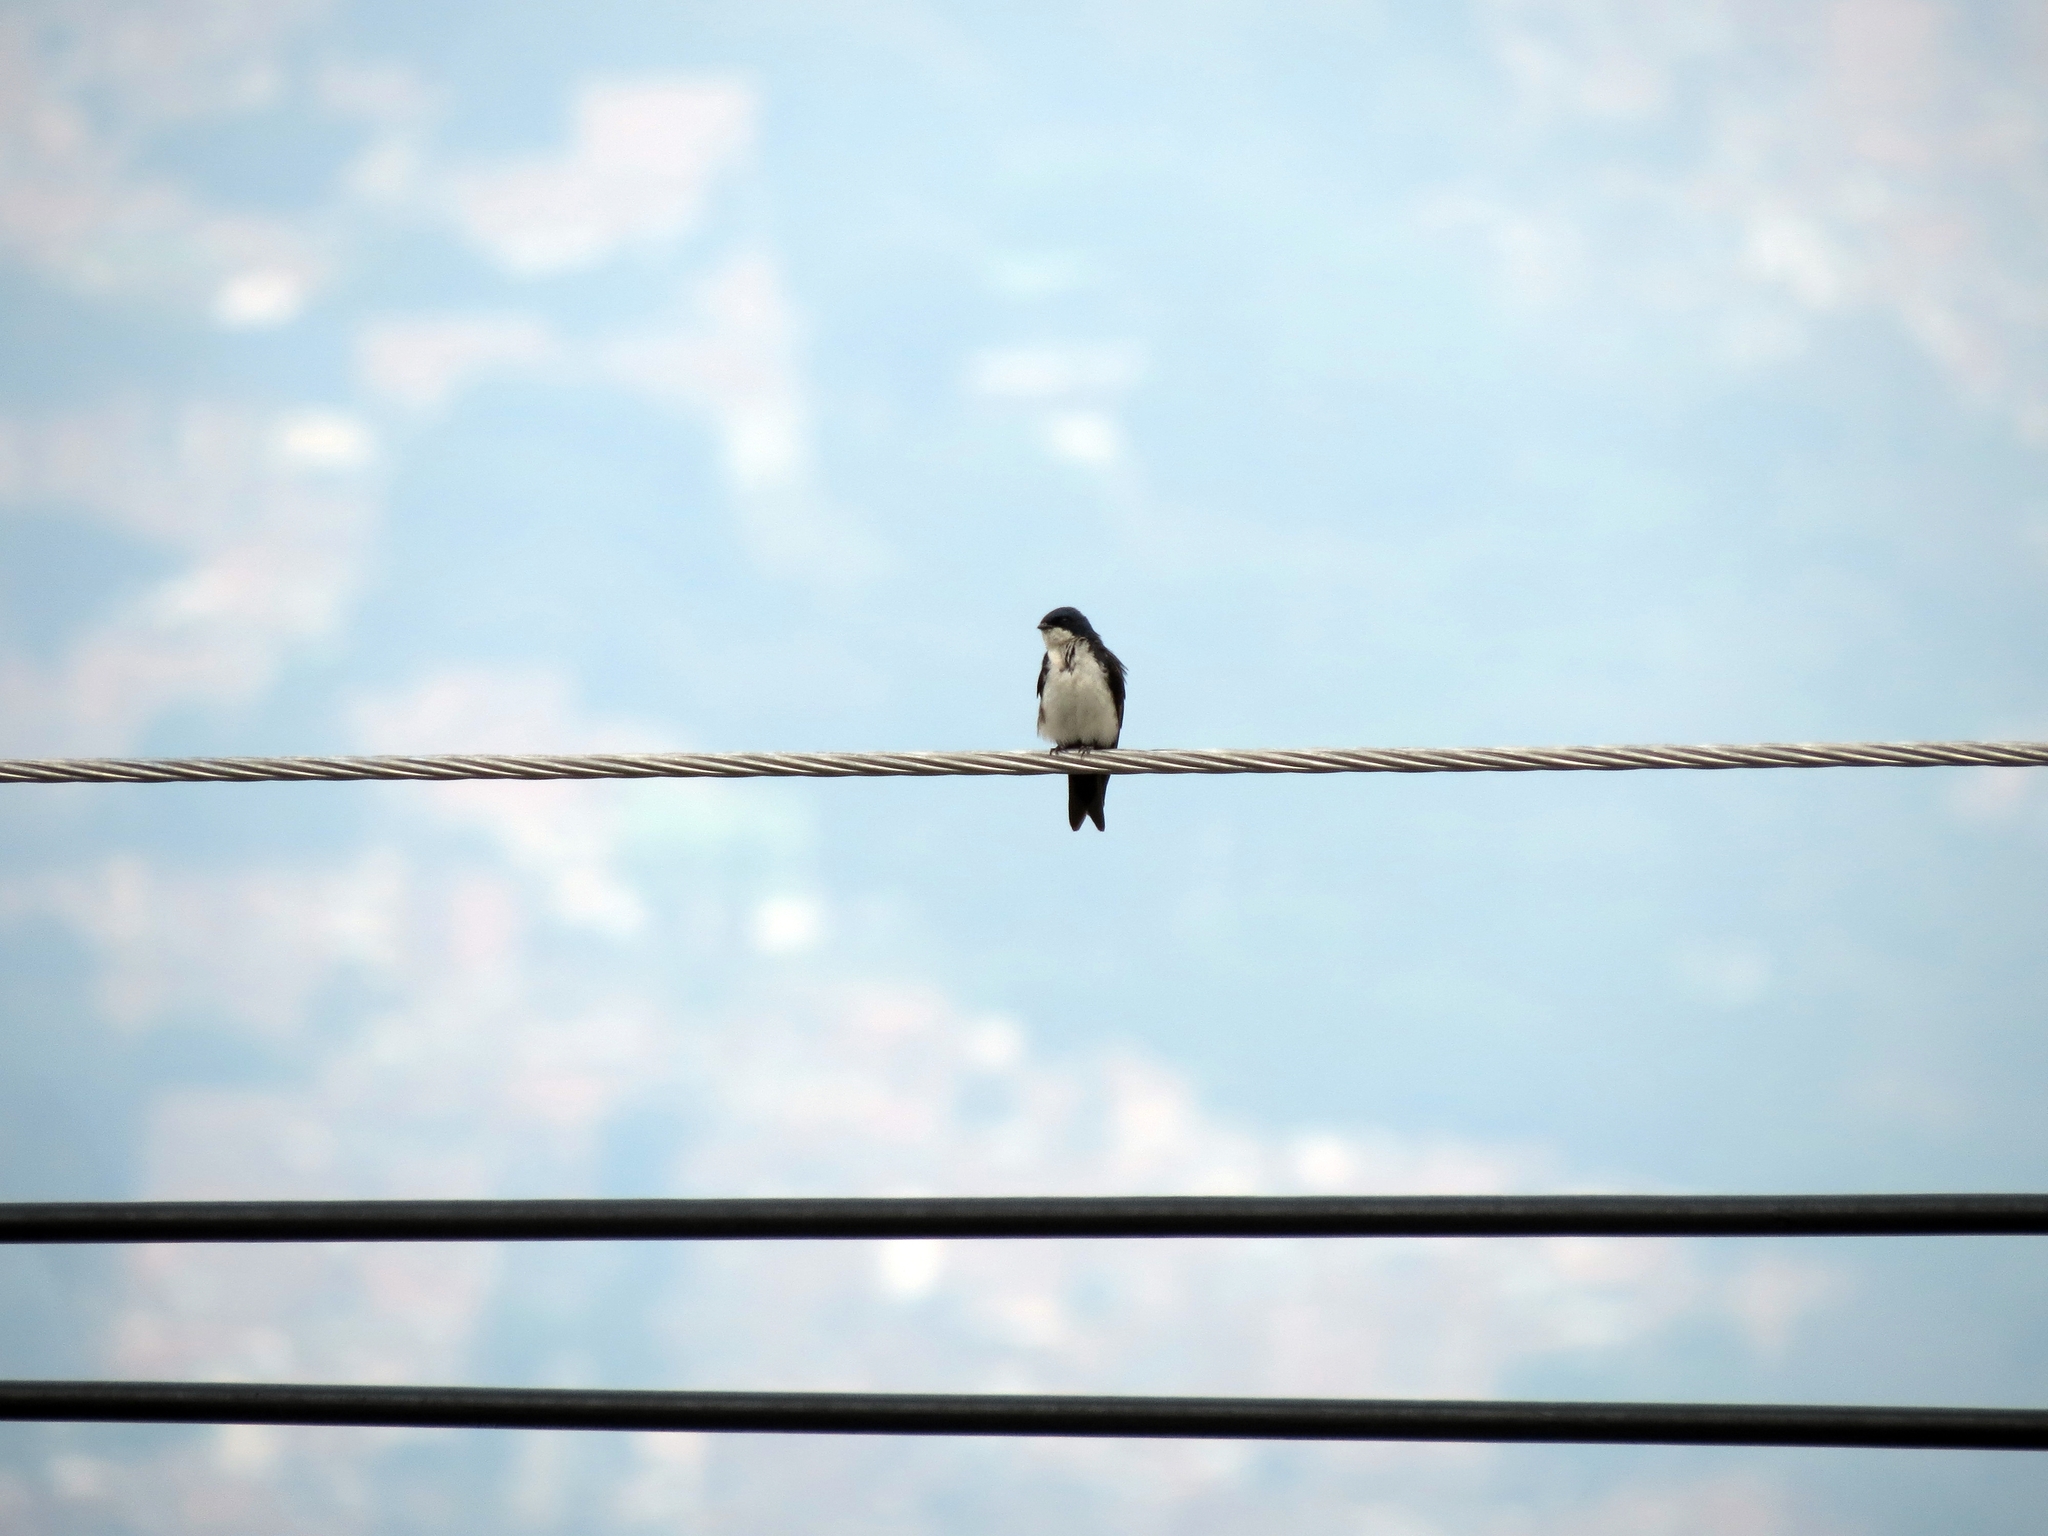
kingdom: Animalia
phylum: Chordata
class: Aves
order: Passeriformes
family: Hirundinidae
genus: Notiochelidon
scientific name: Notiochelidon cyanoleuca
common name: Blue-and-white swallow
